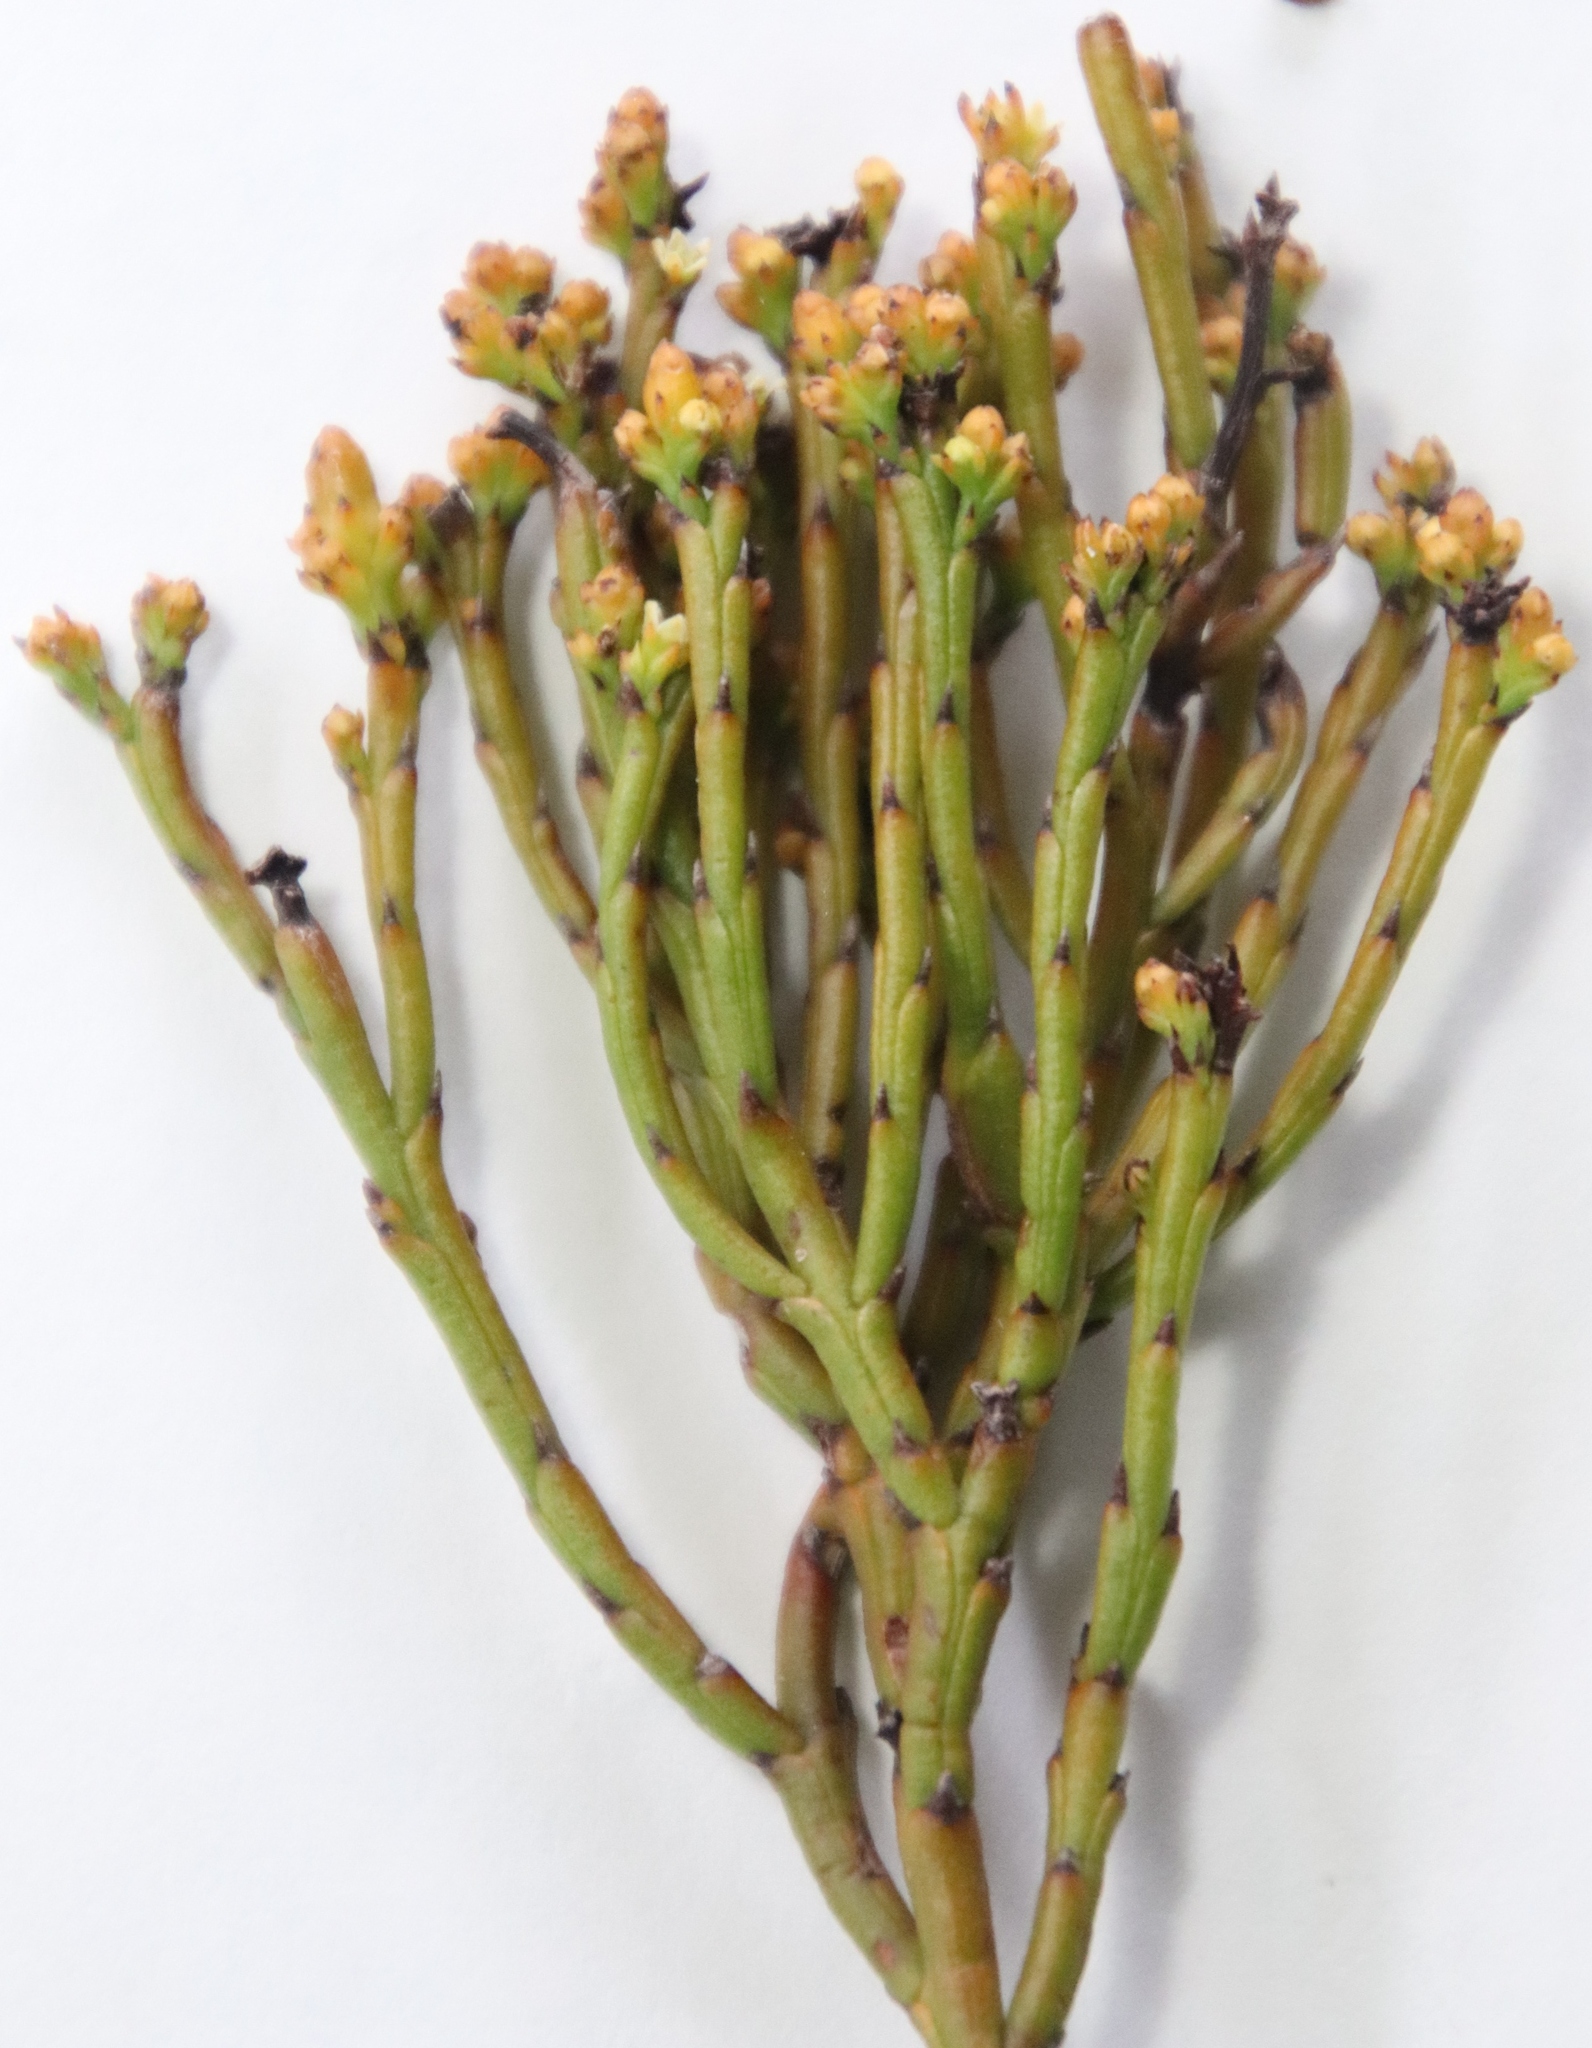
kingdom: Plantae
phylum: Tracheophyta
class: Magnoliopsida
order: Santalales
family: Thesiaceae
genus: Thesium
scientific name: Thesium pseudovirgatum
